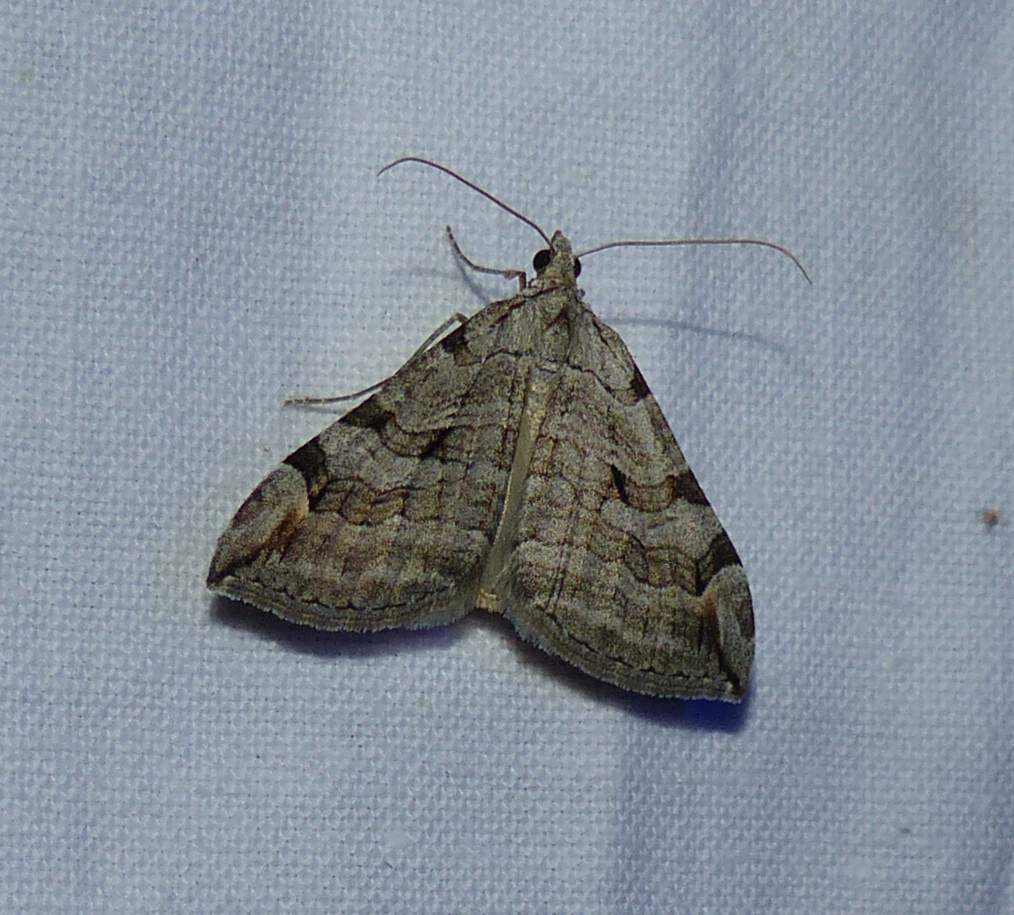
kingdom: Animalia
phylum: Arthropoda
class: Insecta
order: Lepidoptera
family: Geometridae
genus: Aplocera
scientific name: Aplocera plagiata
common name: Treble-bar
